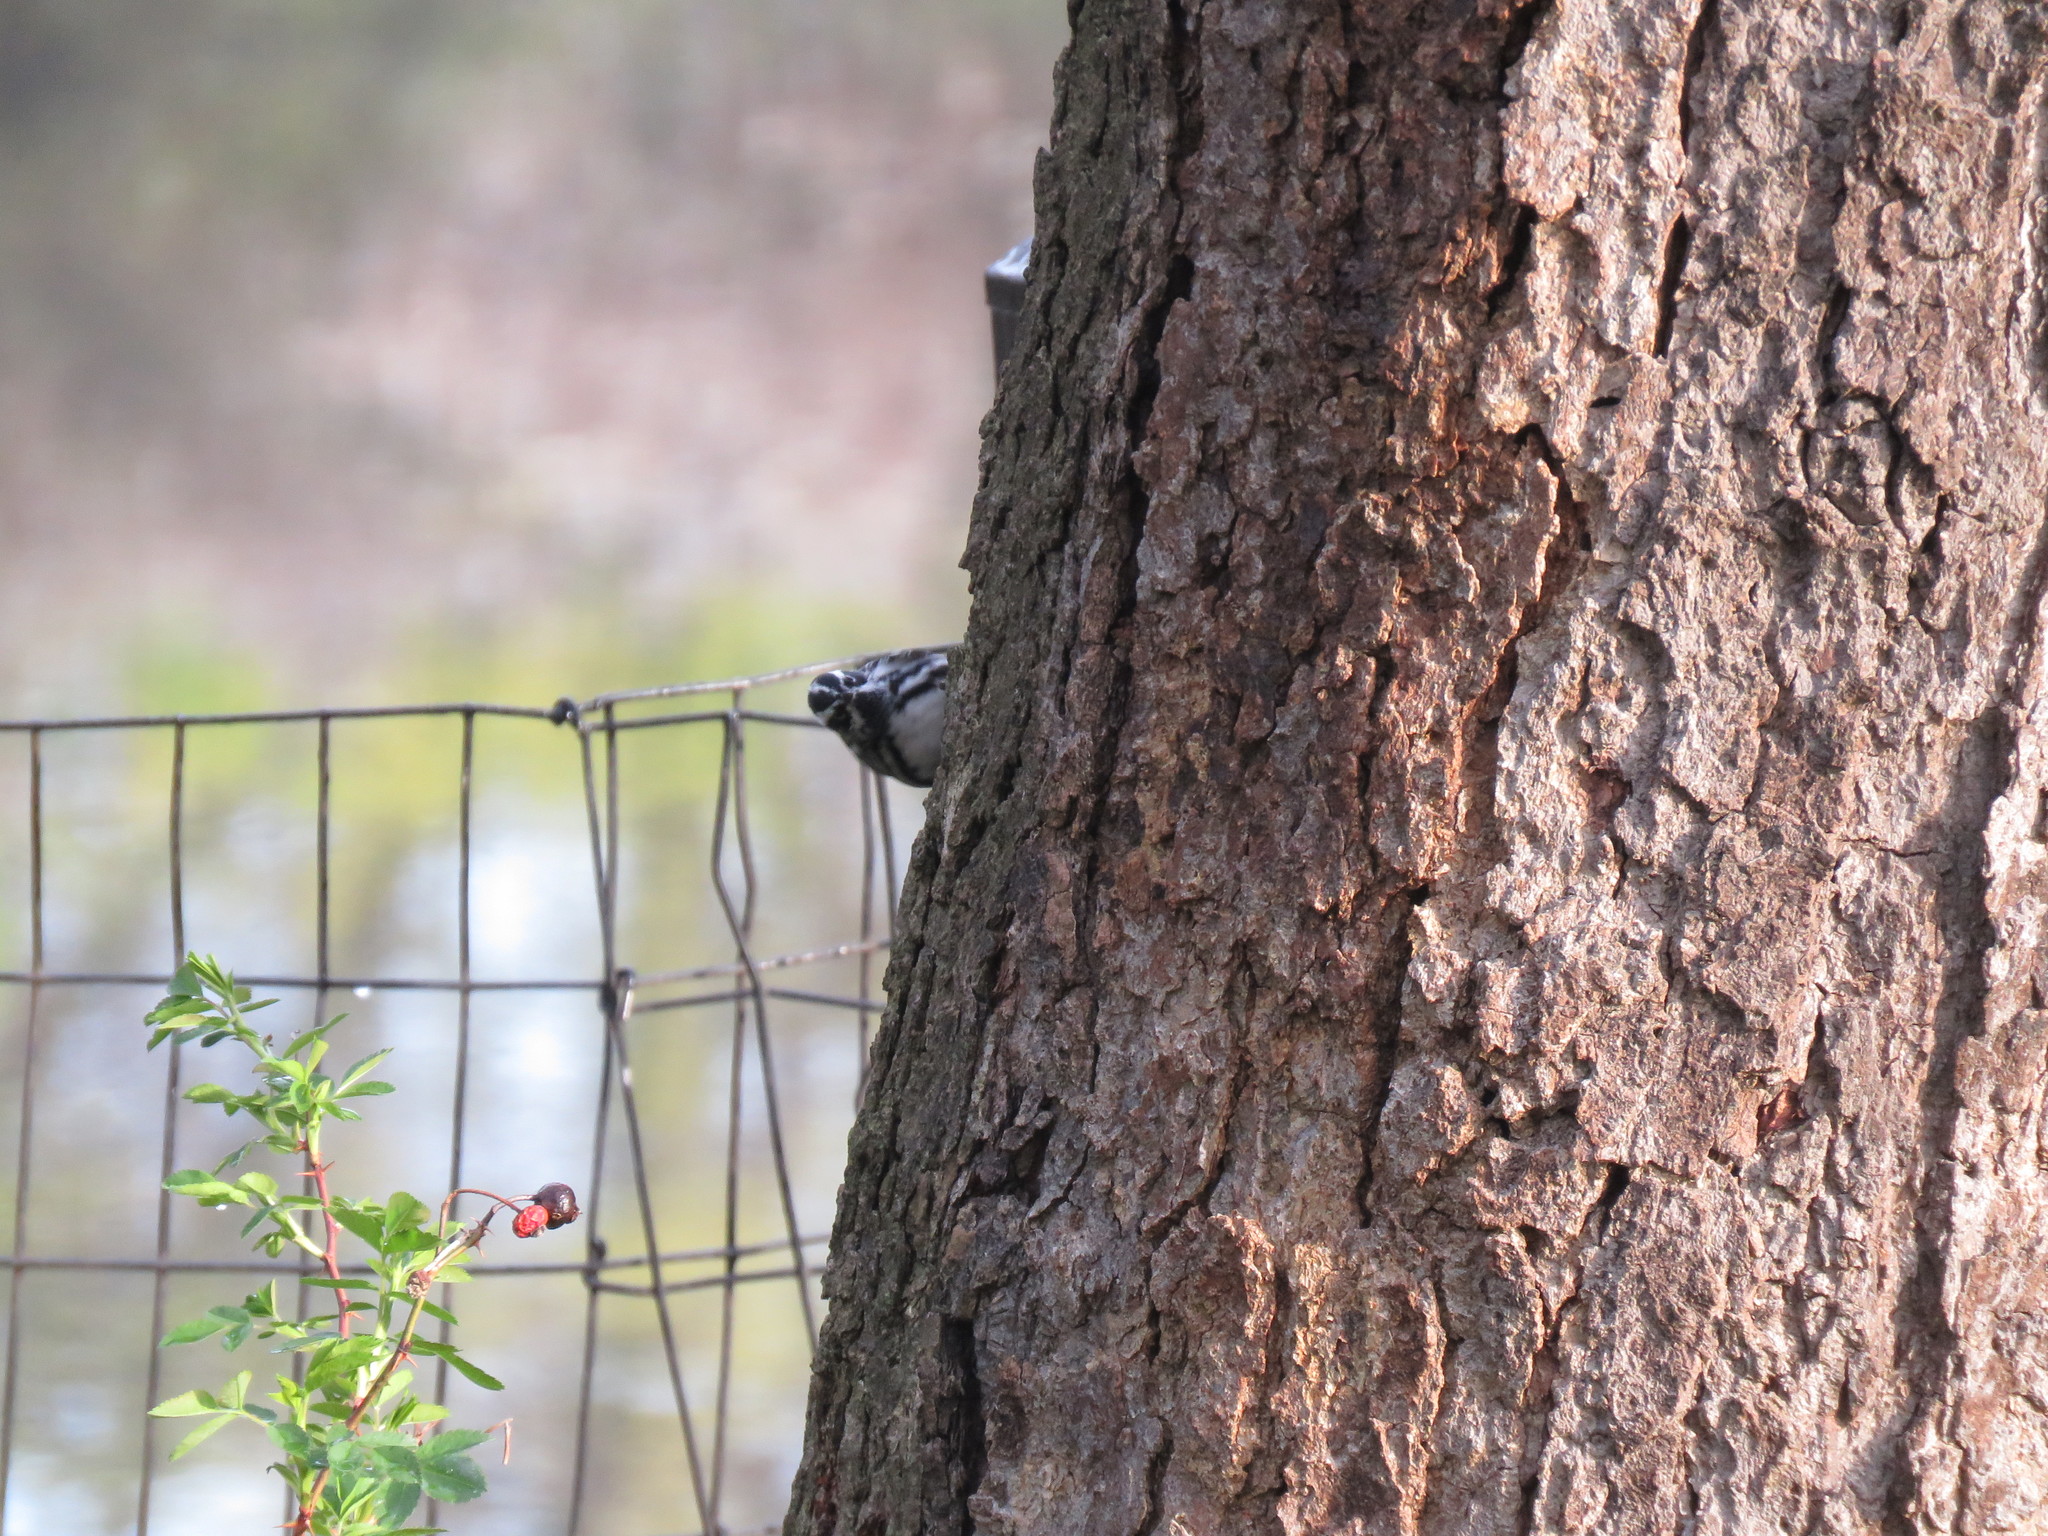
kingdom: Animalia
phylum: Chordata
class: Aves
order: Passeriformes
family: Parulidae
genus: Mniotilta
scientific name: Mniotilta varia
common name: Black-and-white warbler
